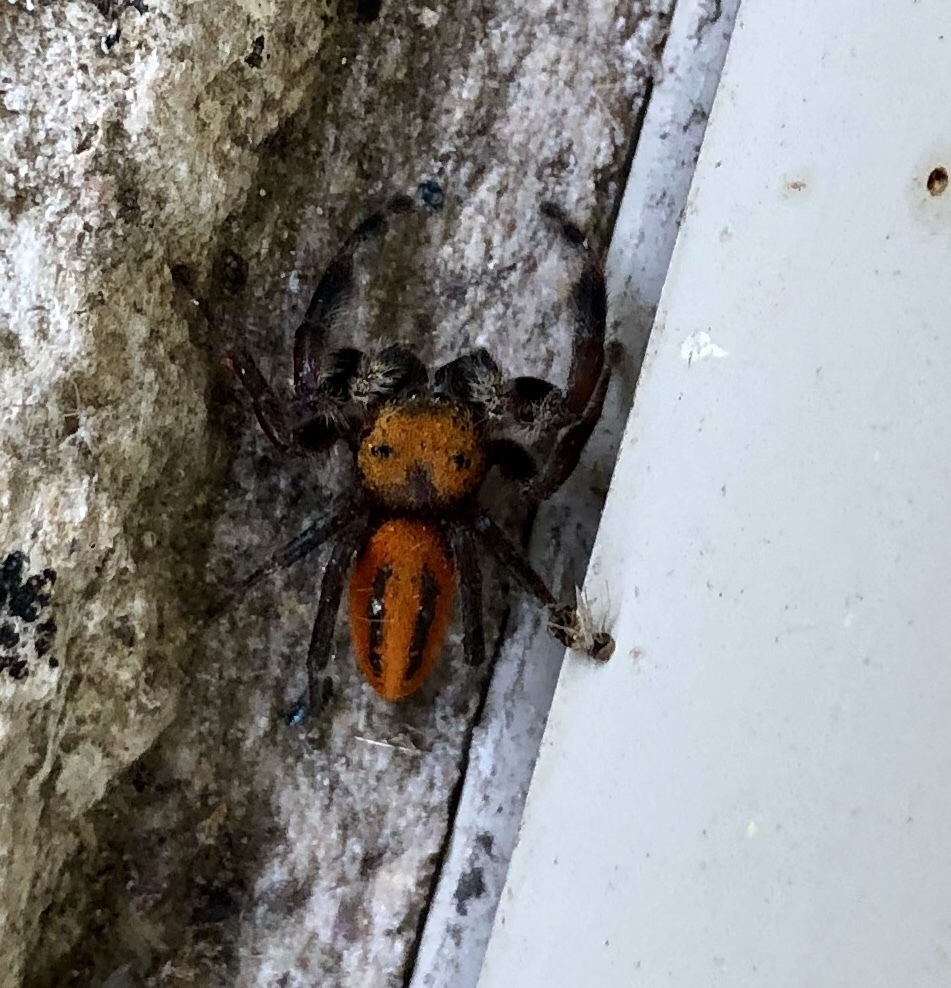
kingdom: Animalia
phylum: Arthropoda
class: Arachnida
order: Araneae
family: Salticidae
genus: Phidippus
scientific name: Phidippus pius
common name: Jumping spiders
